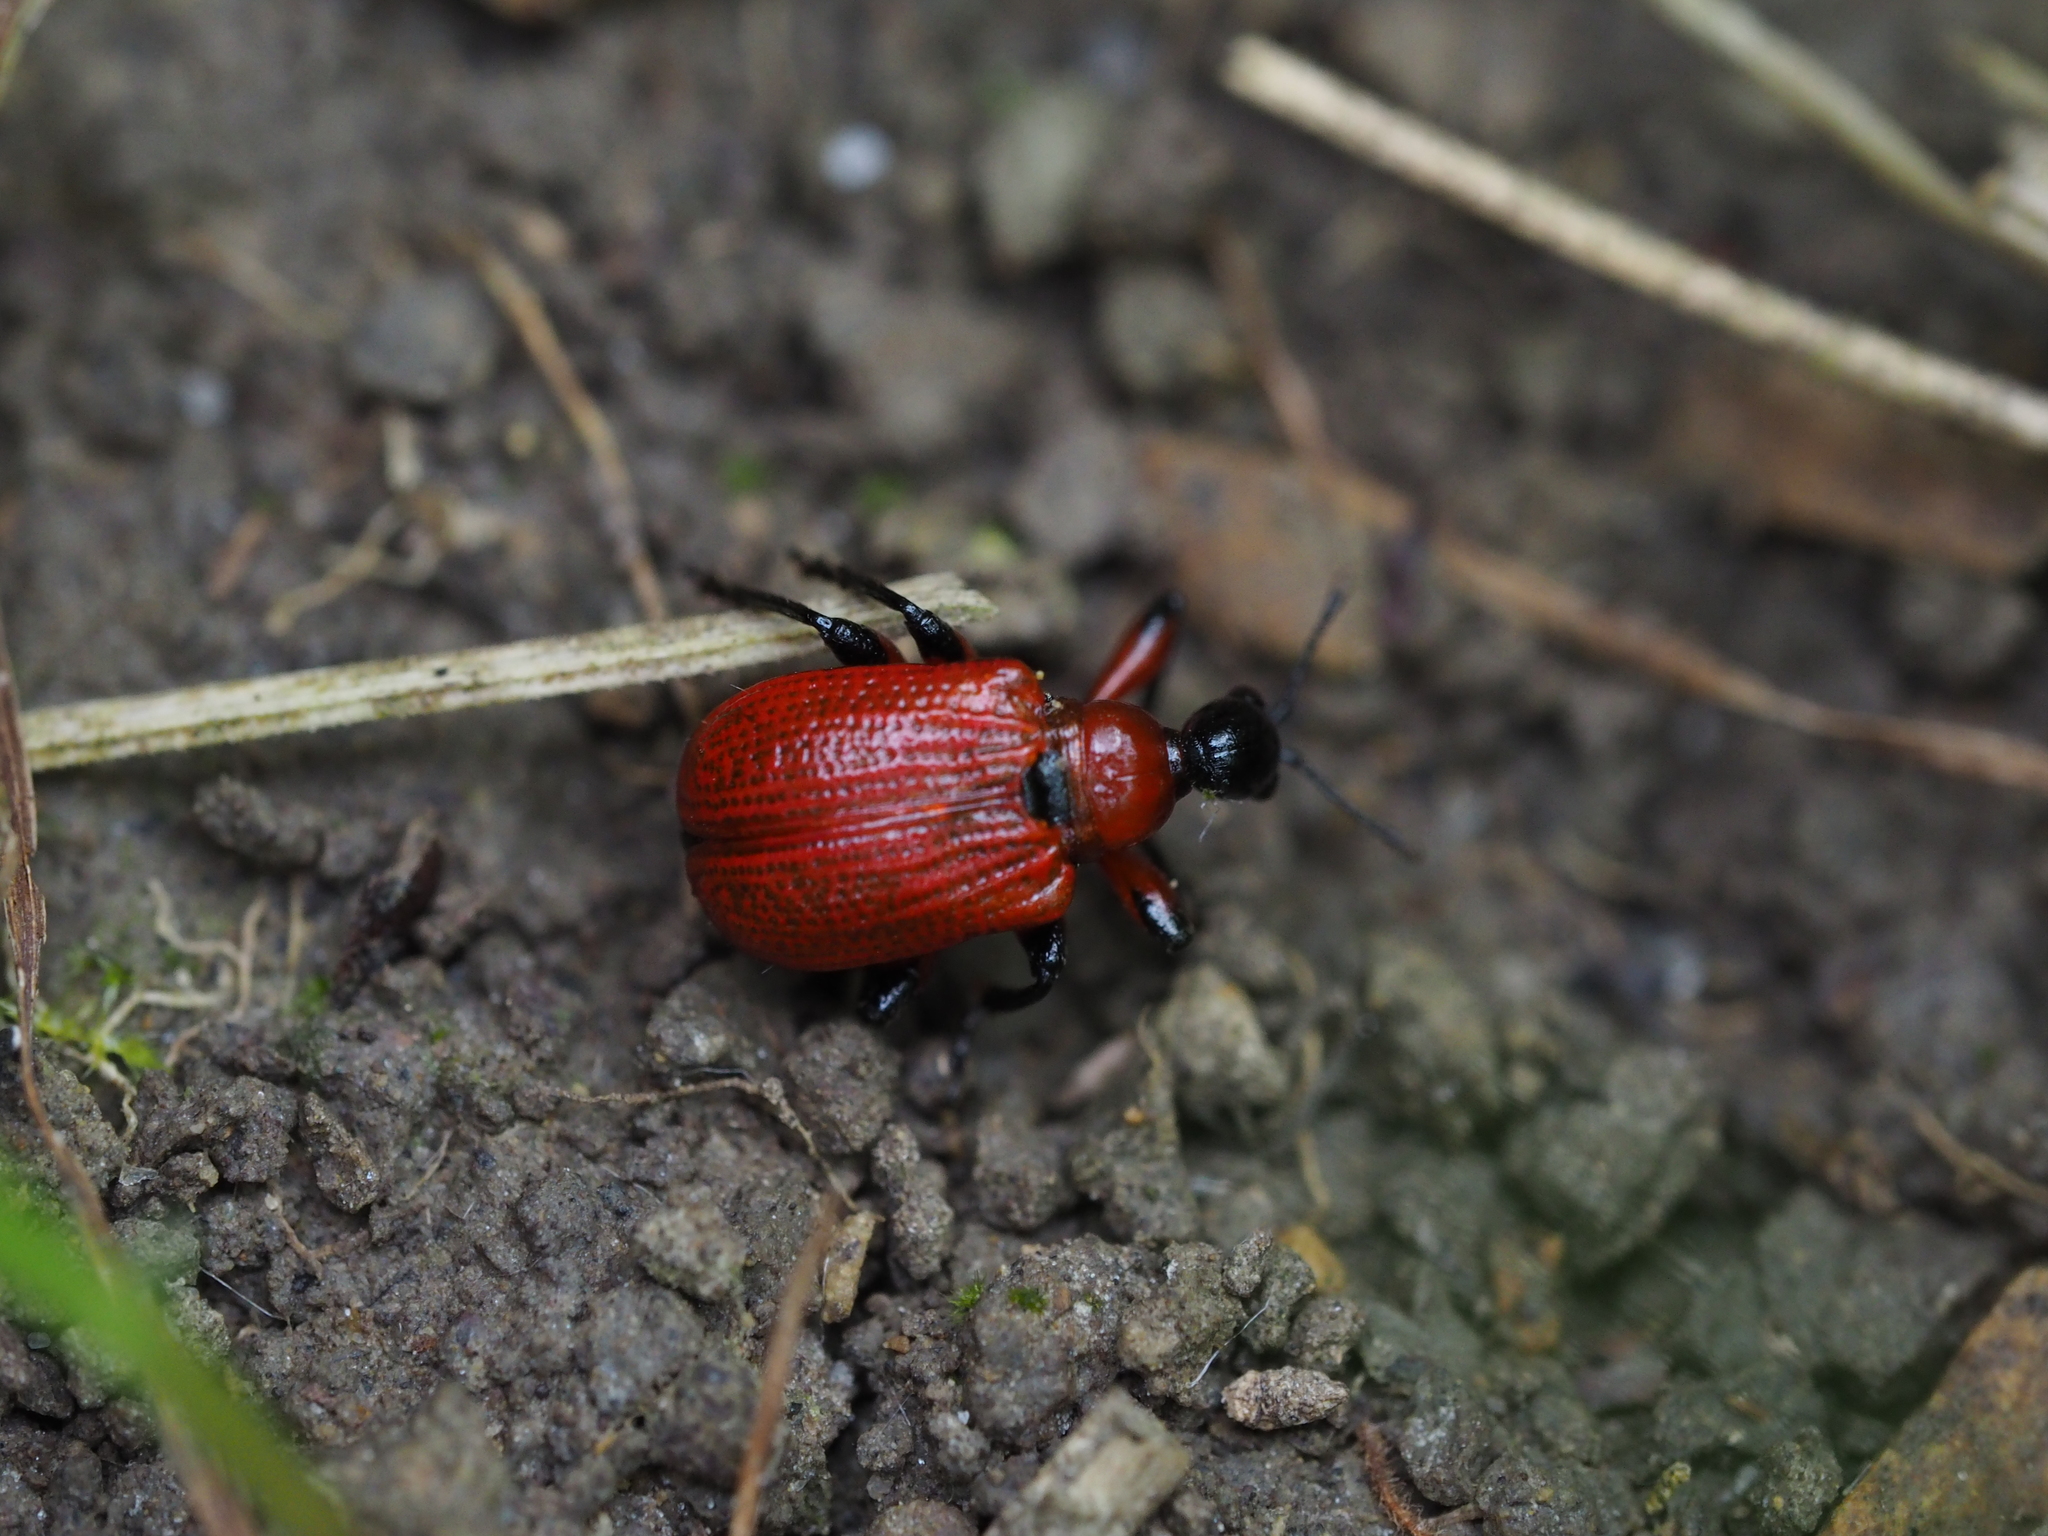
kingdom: Animalia
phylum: Arthropoda
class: Insecta
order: Coleoptera
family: Attelabidae
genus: Apoderus
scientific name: Apoderus coryli
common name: Hazel leaf roller
